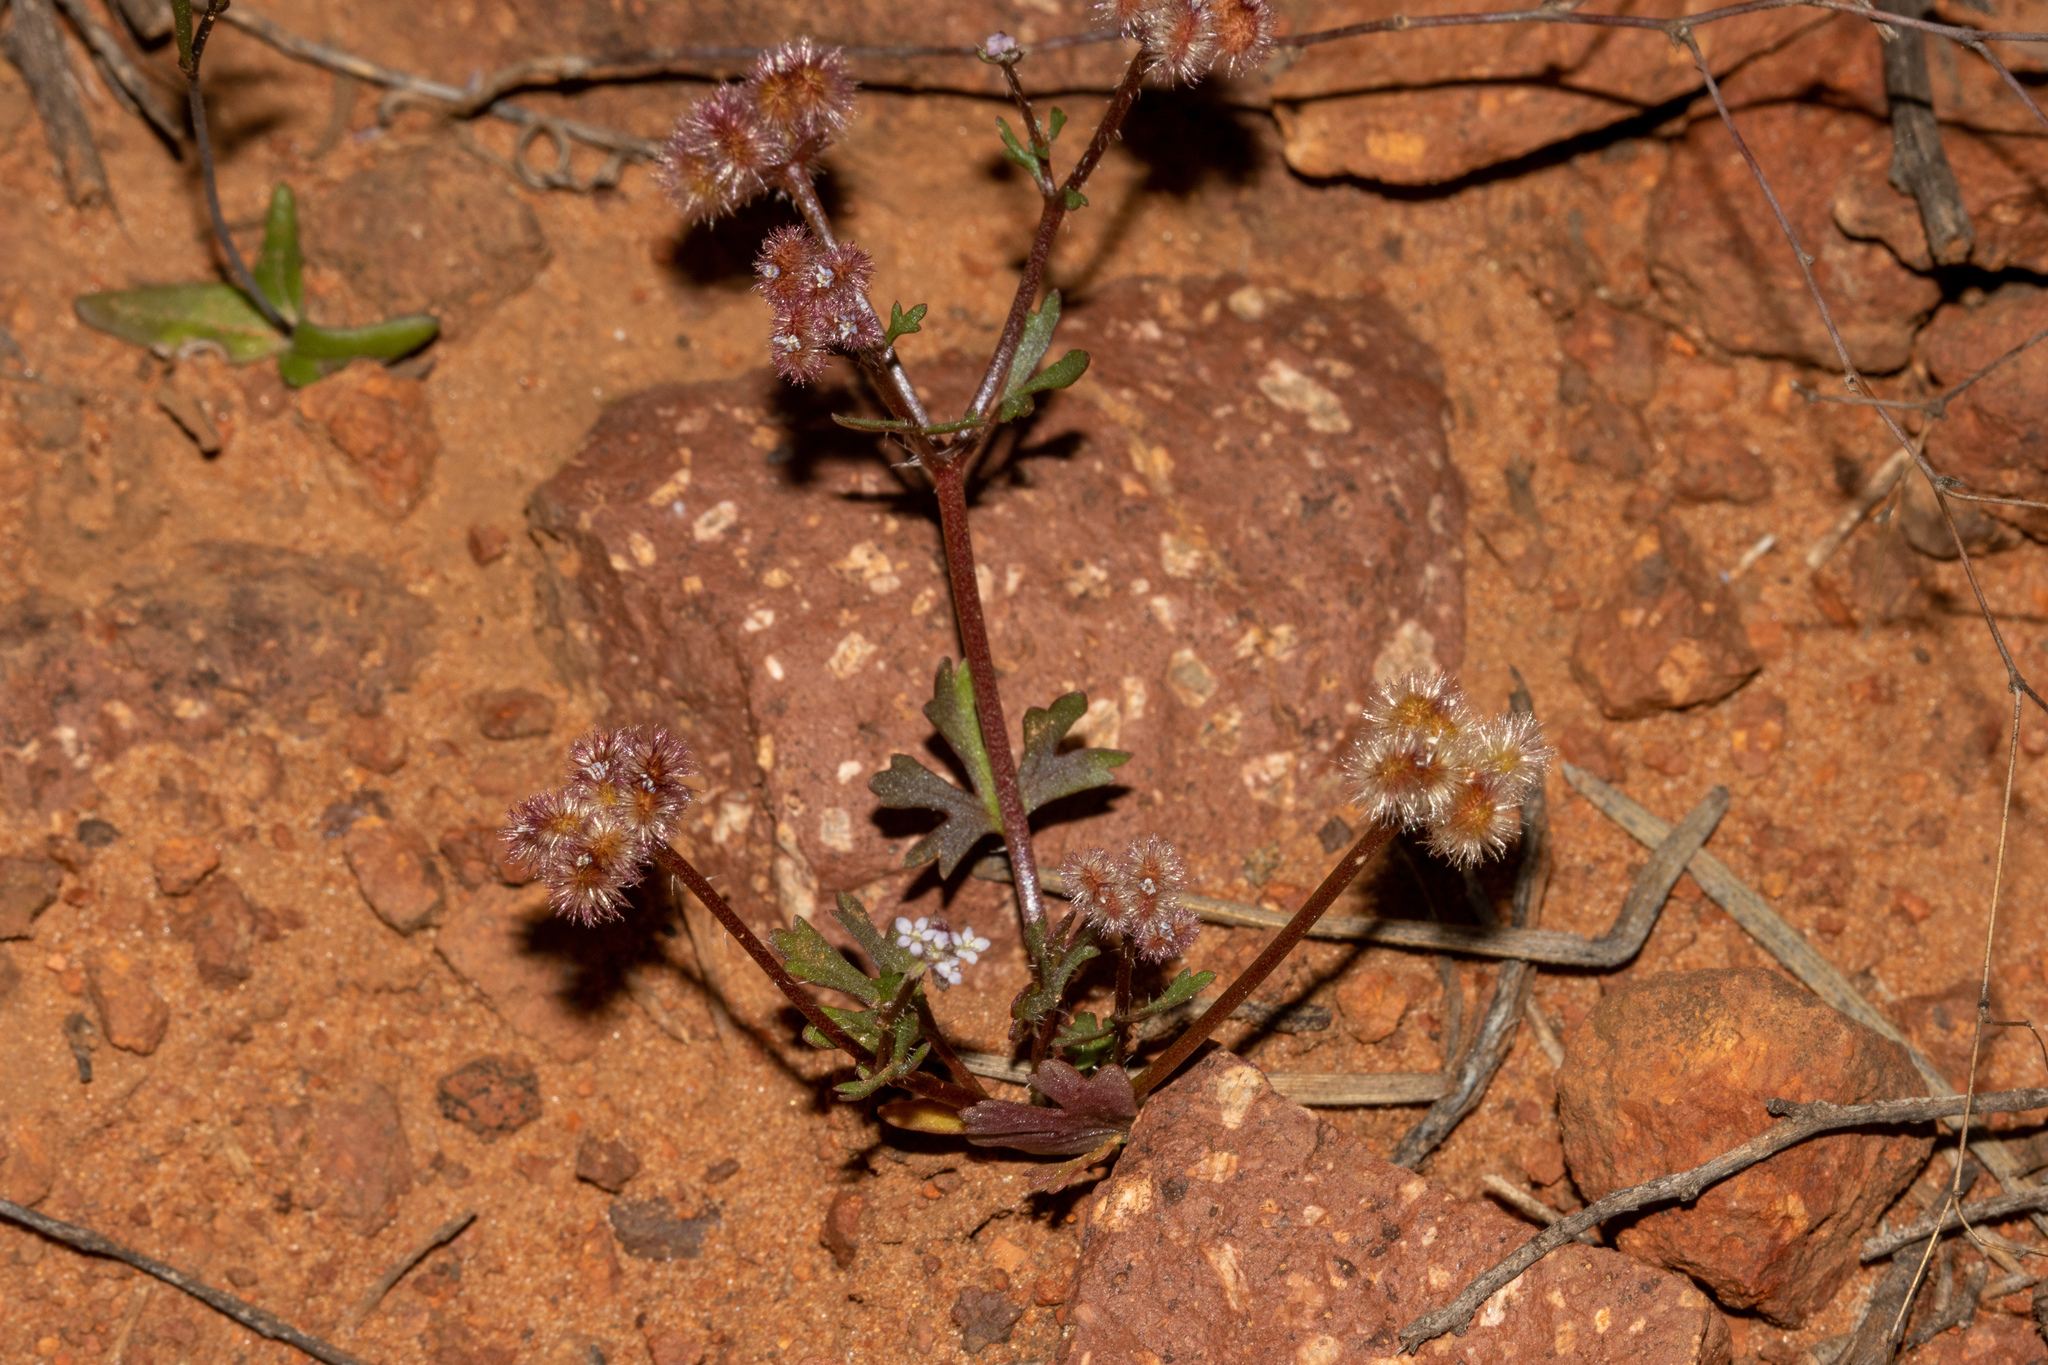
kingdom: Plantae
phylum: Tracheophyta
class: Magnoliopsida
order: Apiales
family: Araliaceae
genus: Trachymene
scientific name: Trachymene cyanopetala
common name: Purple trachymene
